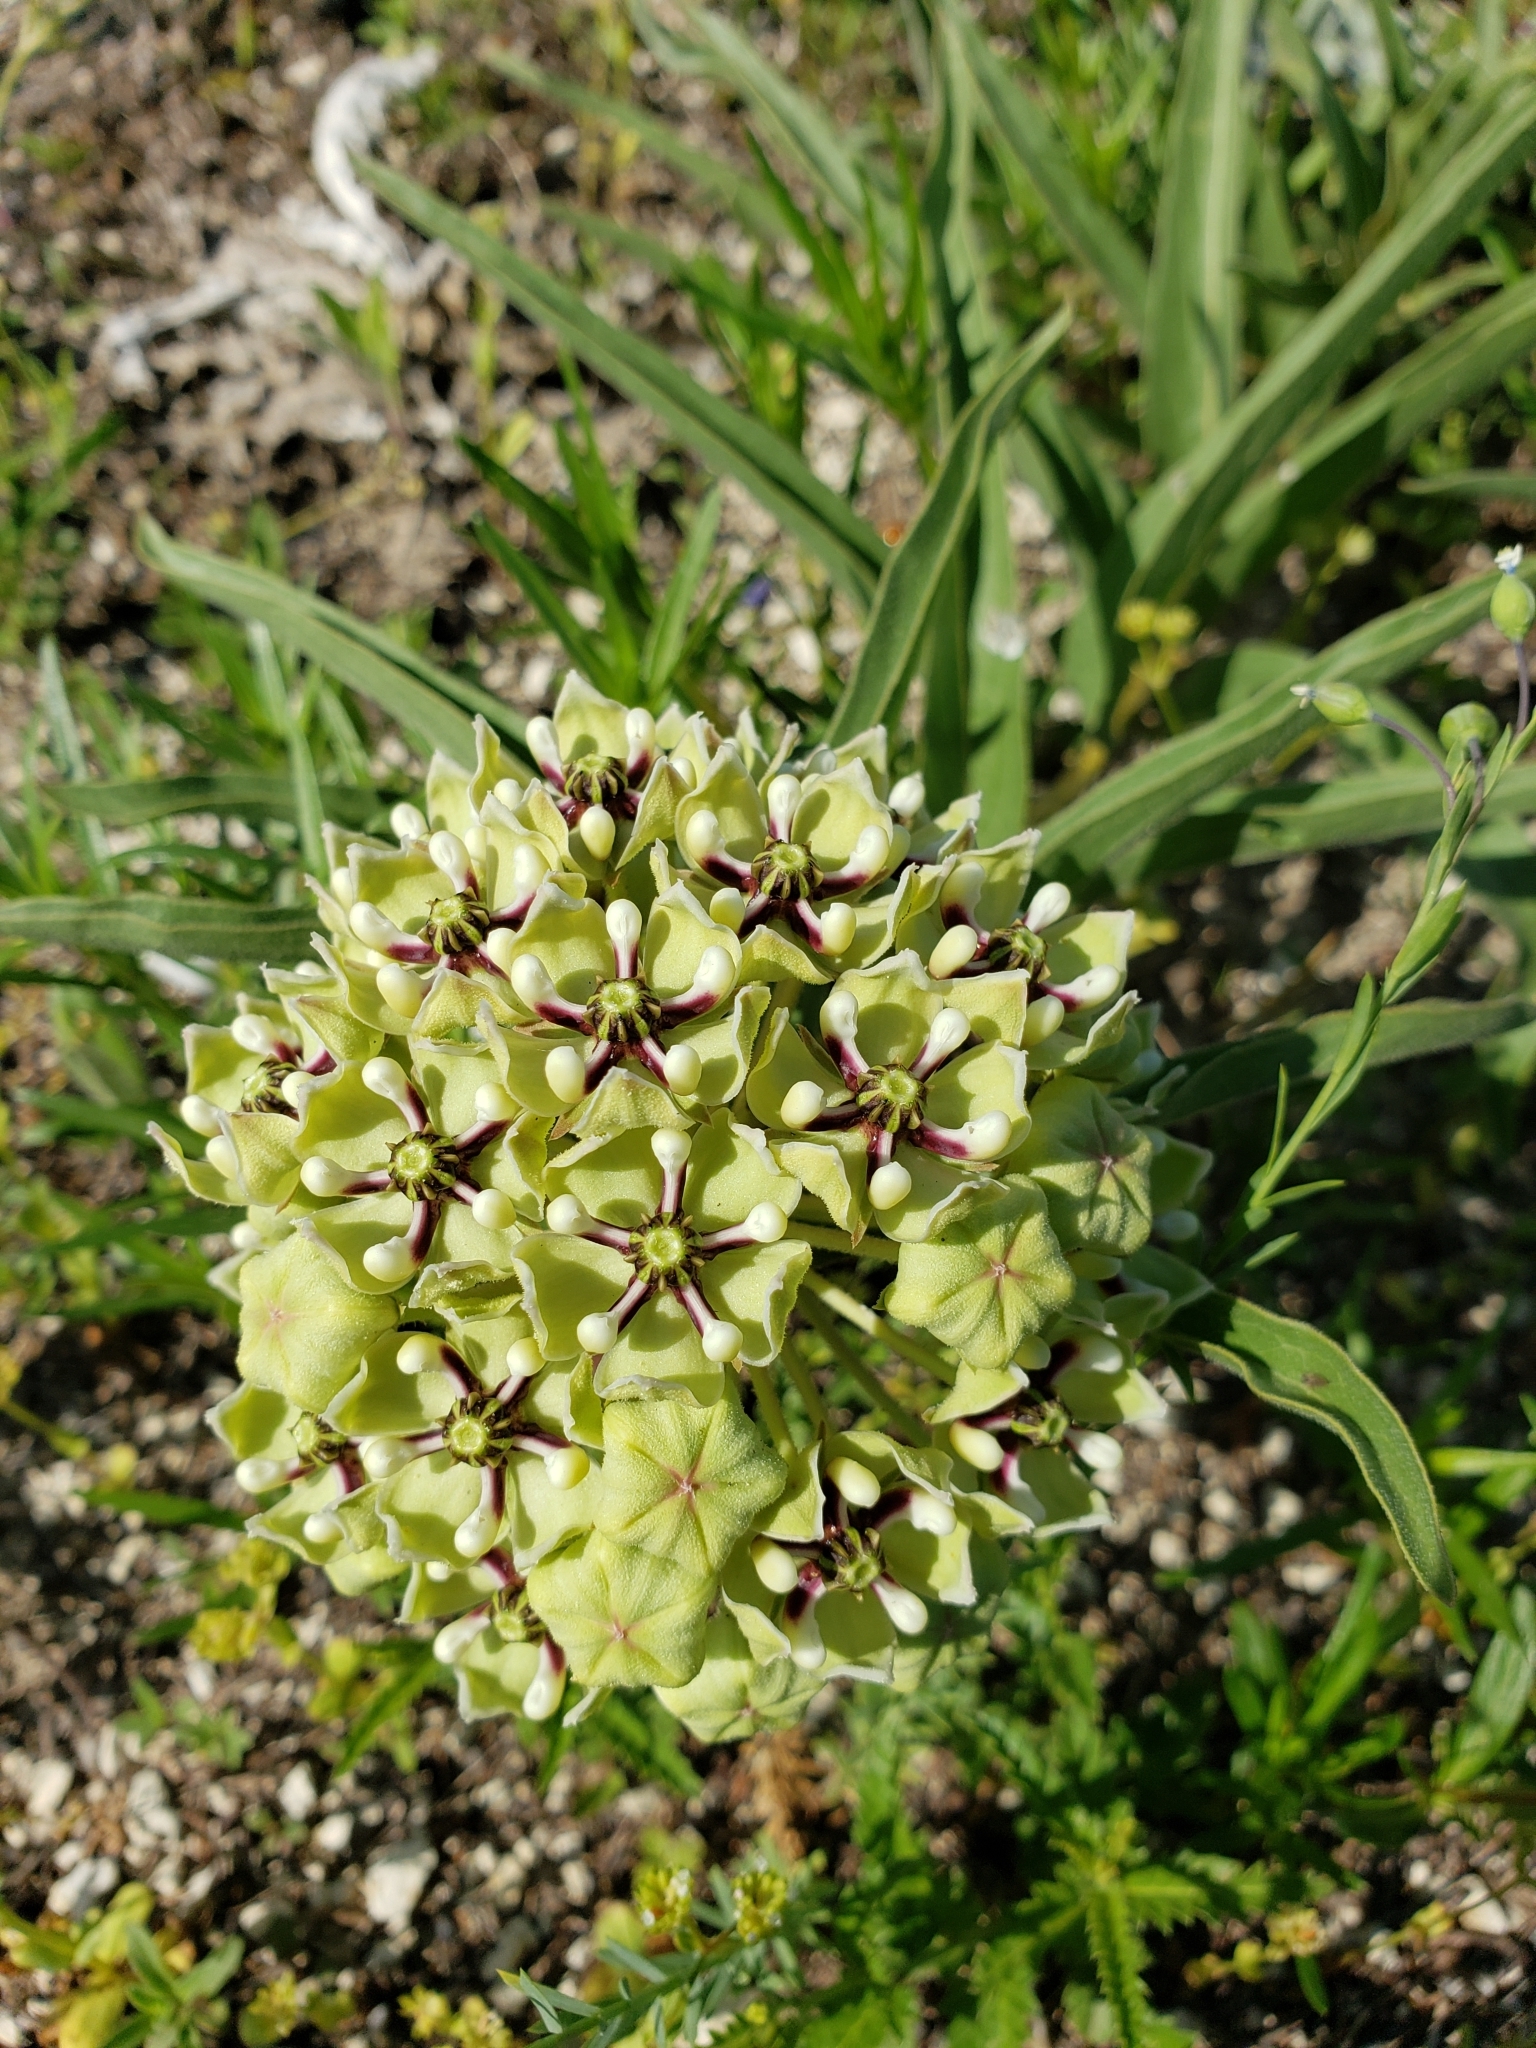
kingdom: Plantae
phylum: Tracheophyta
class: Magnoliopsida
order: Gentianales
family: Apocynaceae
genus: Asclepias
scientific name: Asclepias asperula
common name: Antelope horns
